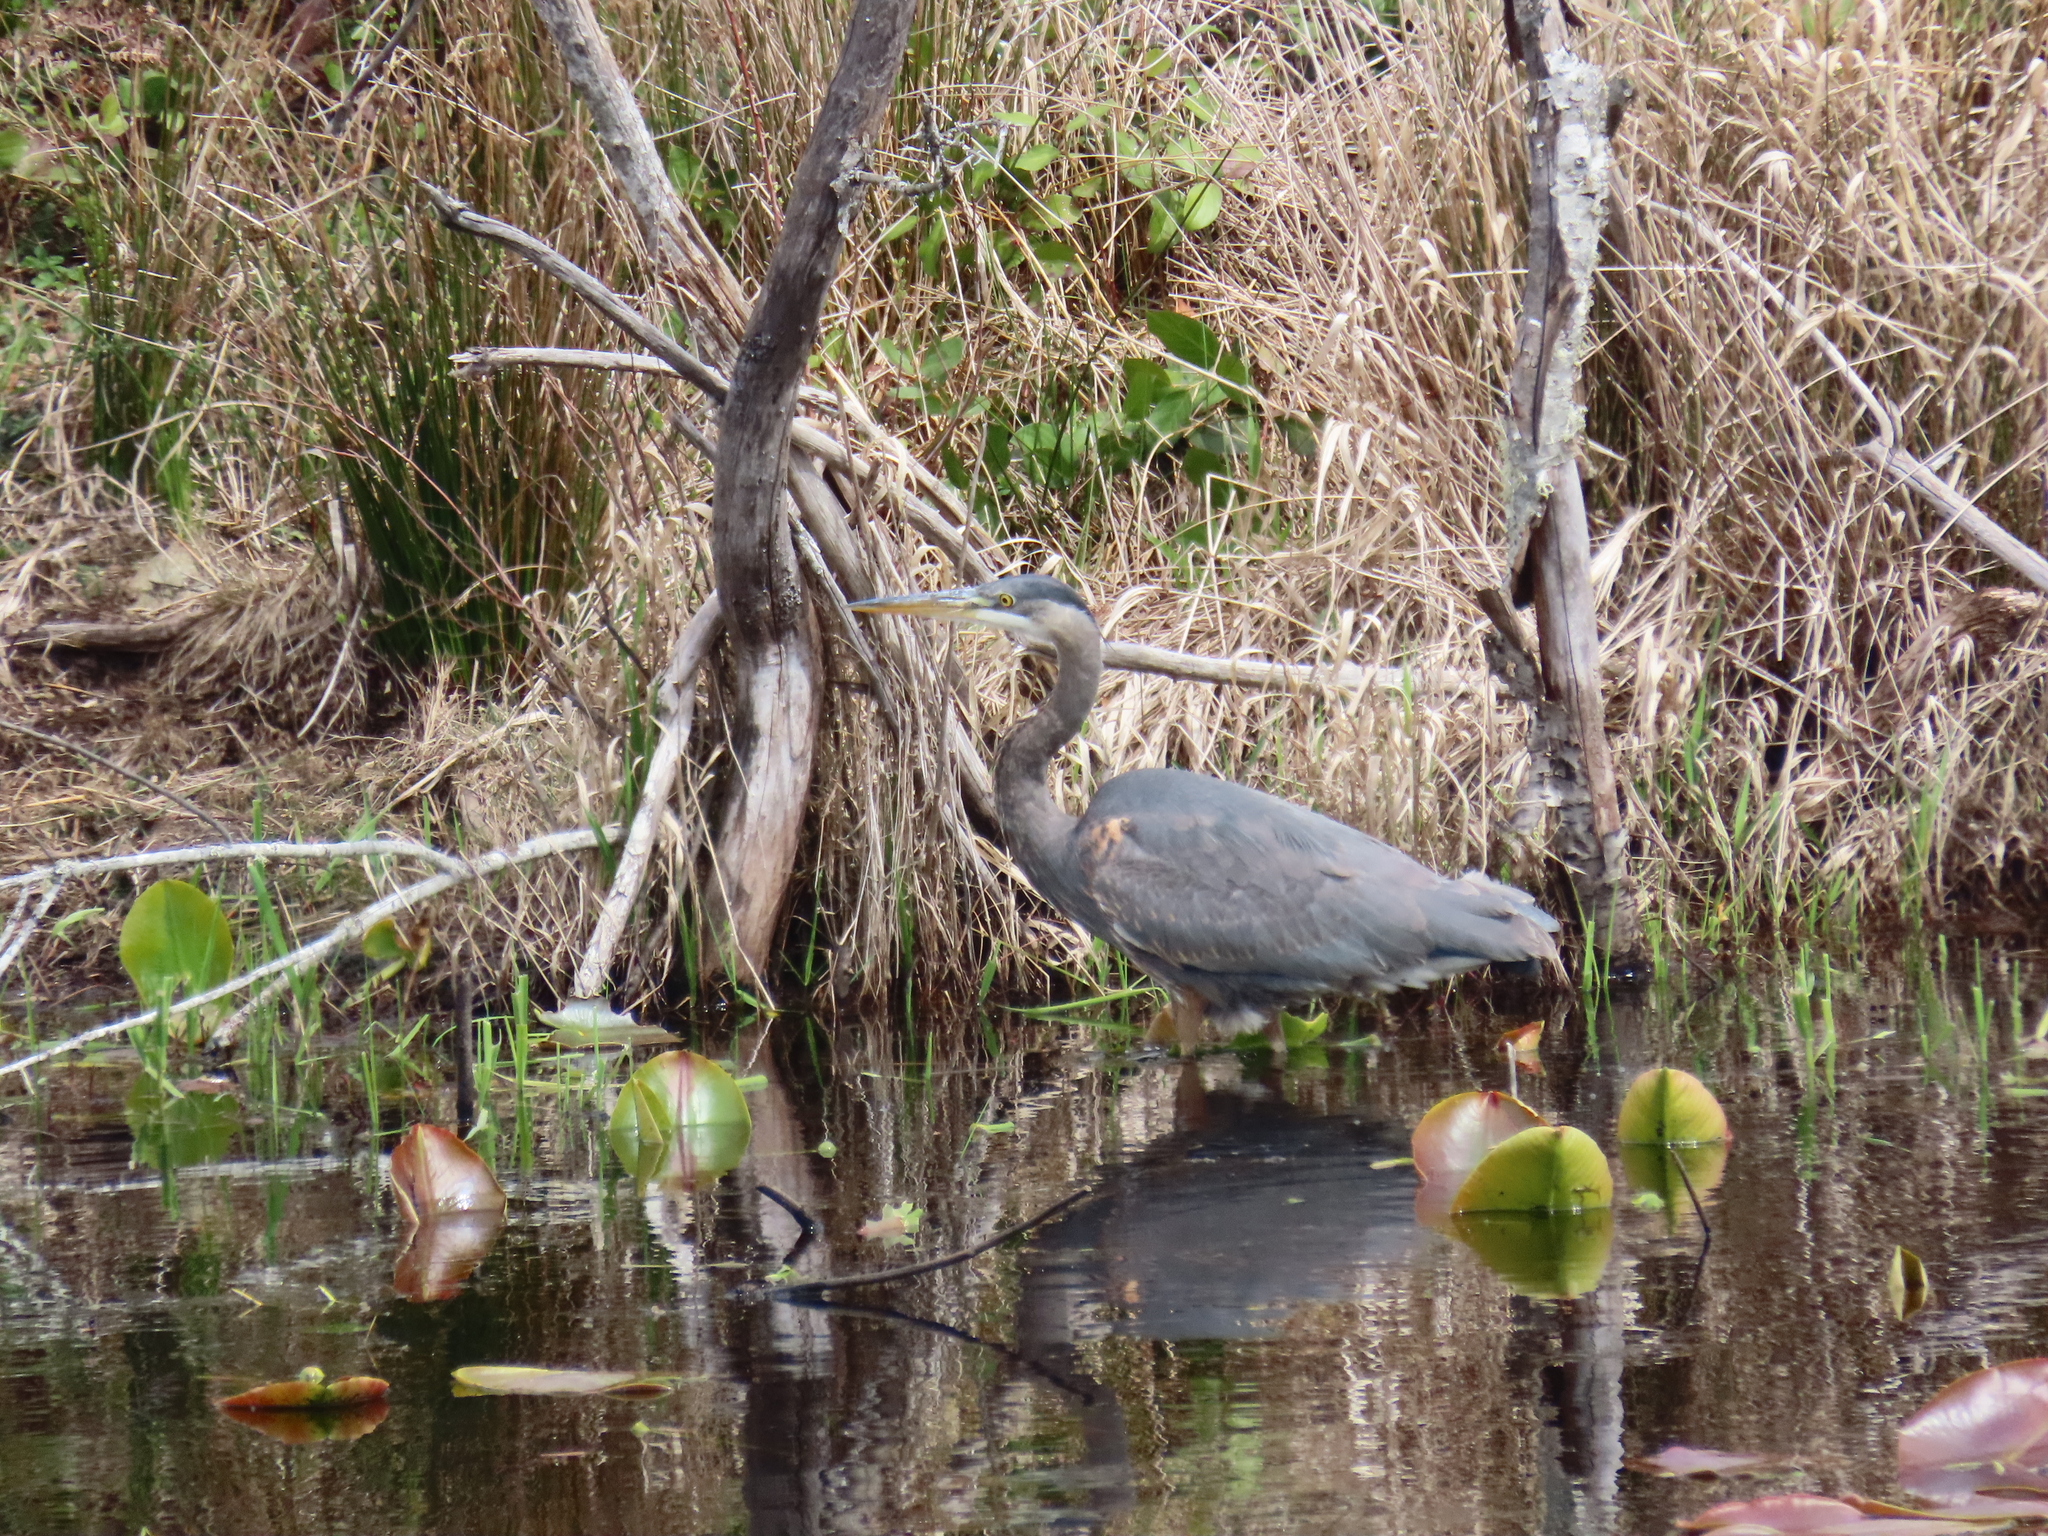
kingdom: Animalia
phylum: Chordata
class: Aves
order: Pelecaniformes
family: Ardeidae
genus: Ardea
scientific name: Ardea herodias
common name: Great blue heron
